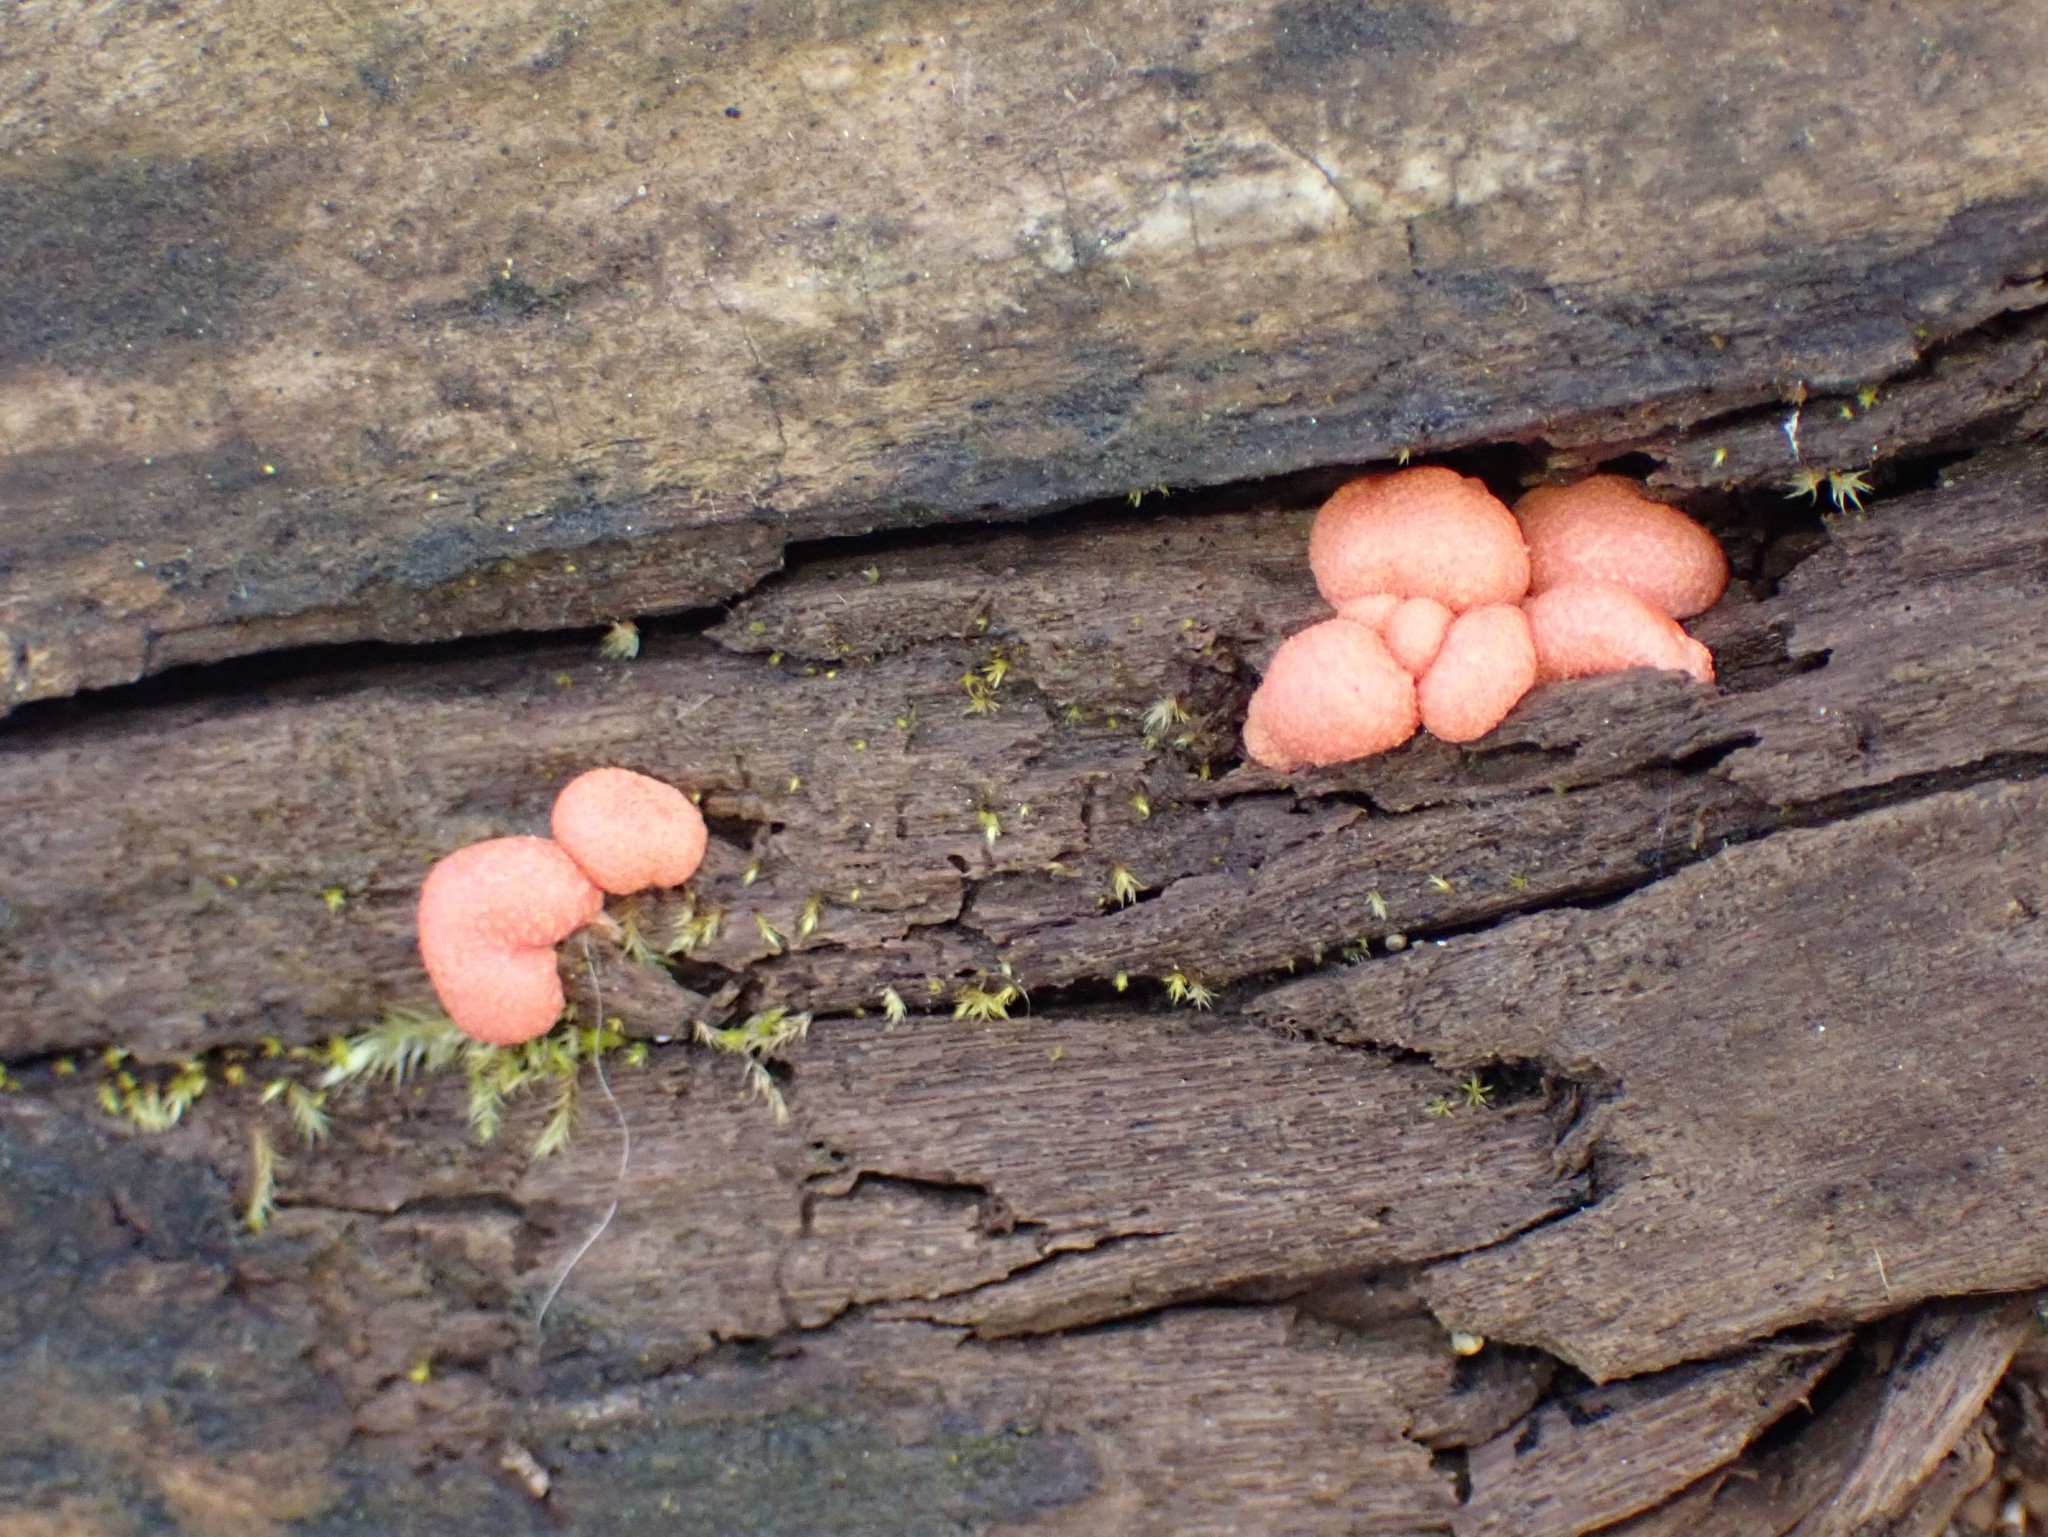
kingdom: Protozoa
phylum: Mycetozoa
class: Myxomycetes
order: Cribrariales
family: Tubiferaceae
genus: Lycogala
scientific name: Lycogala epidendrum
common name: Wolf's milk
